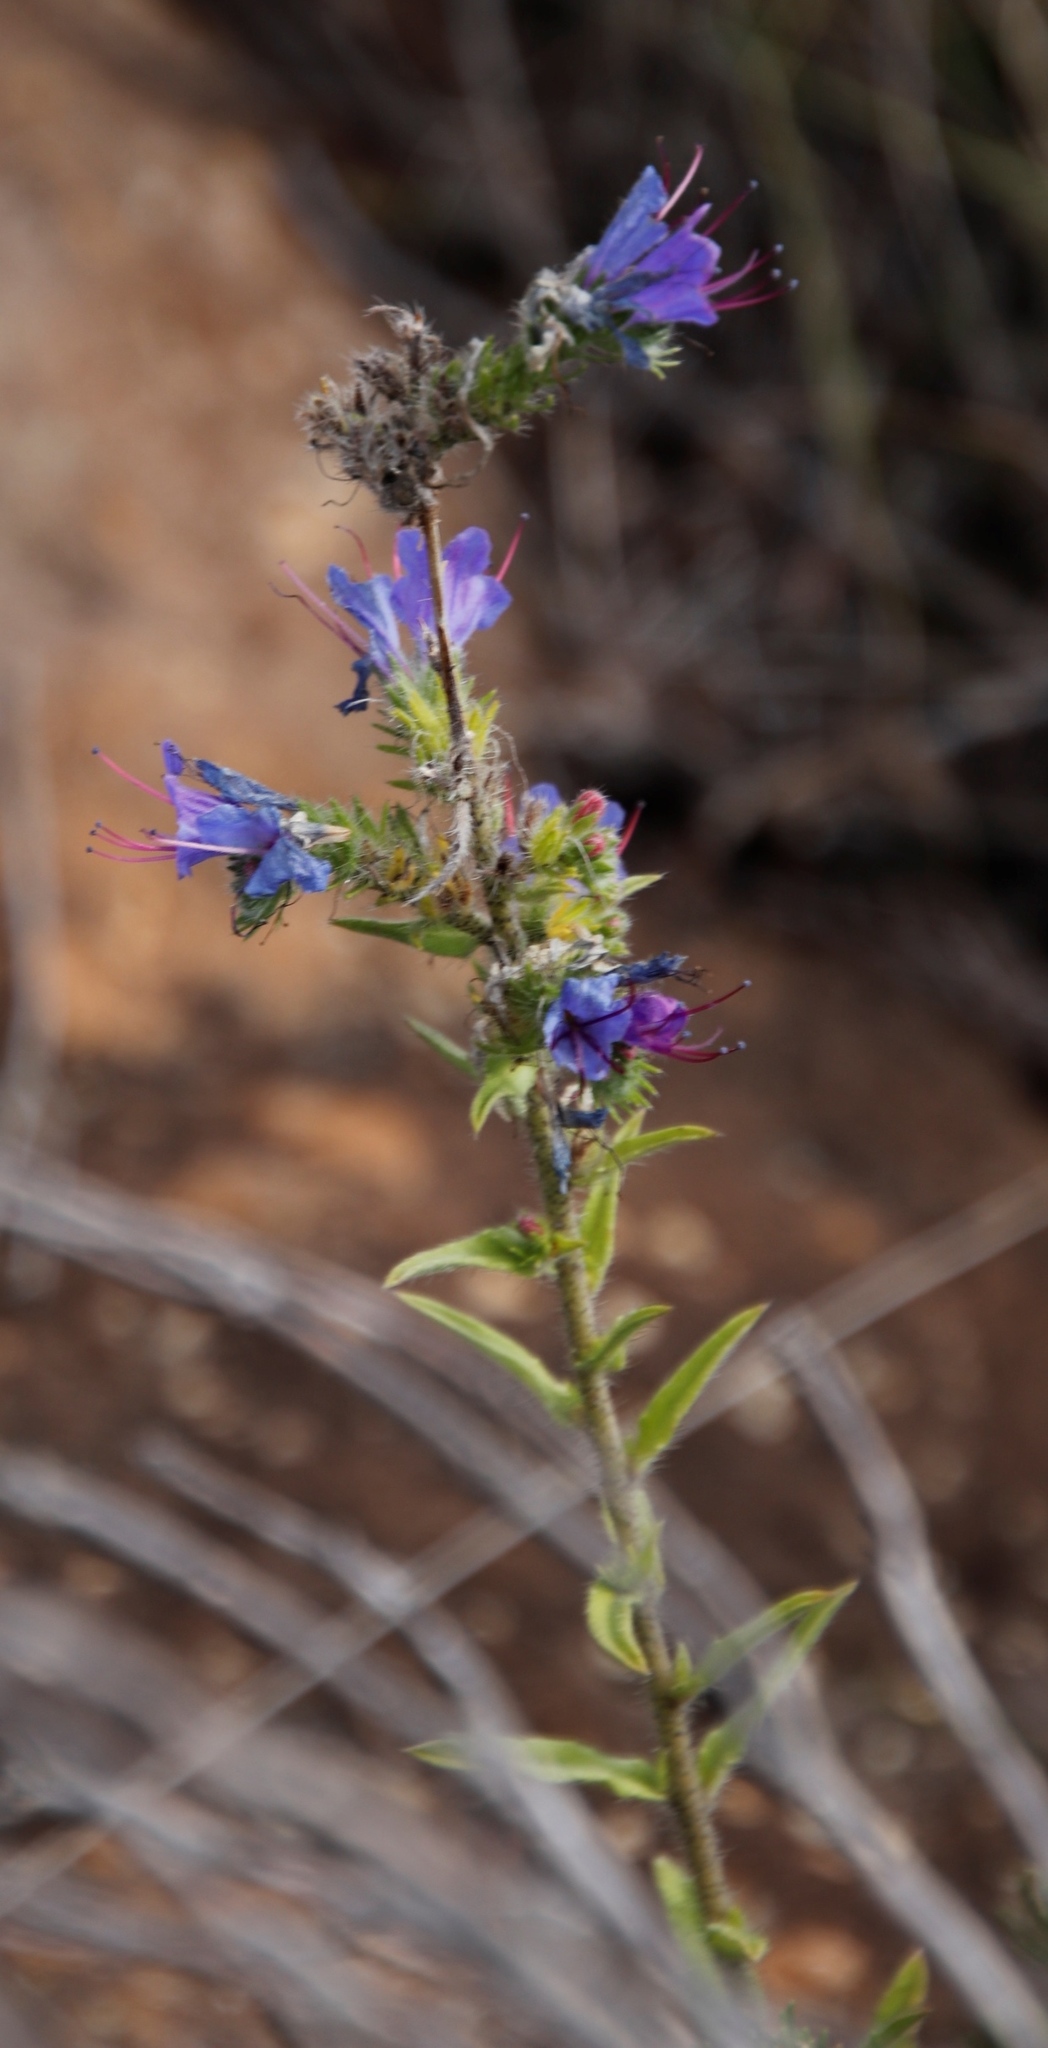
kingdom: Plantae
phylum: Tracheophyta
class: Magnoliopsida
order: Boraginales
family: Boraginaceae
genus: Echium
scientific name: Echium vulgare
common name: Common viper's bugloss
